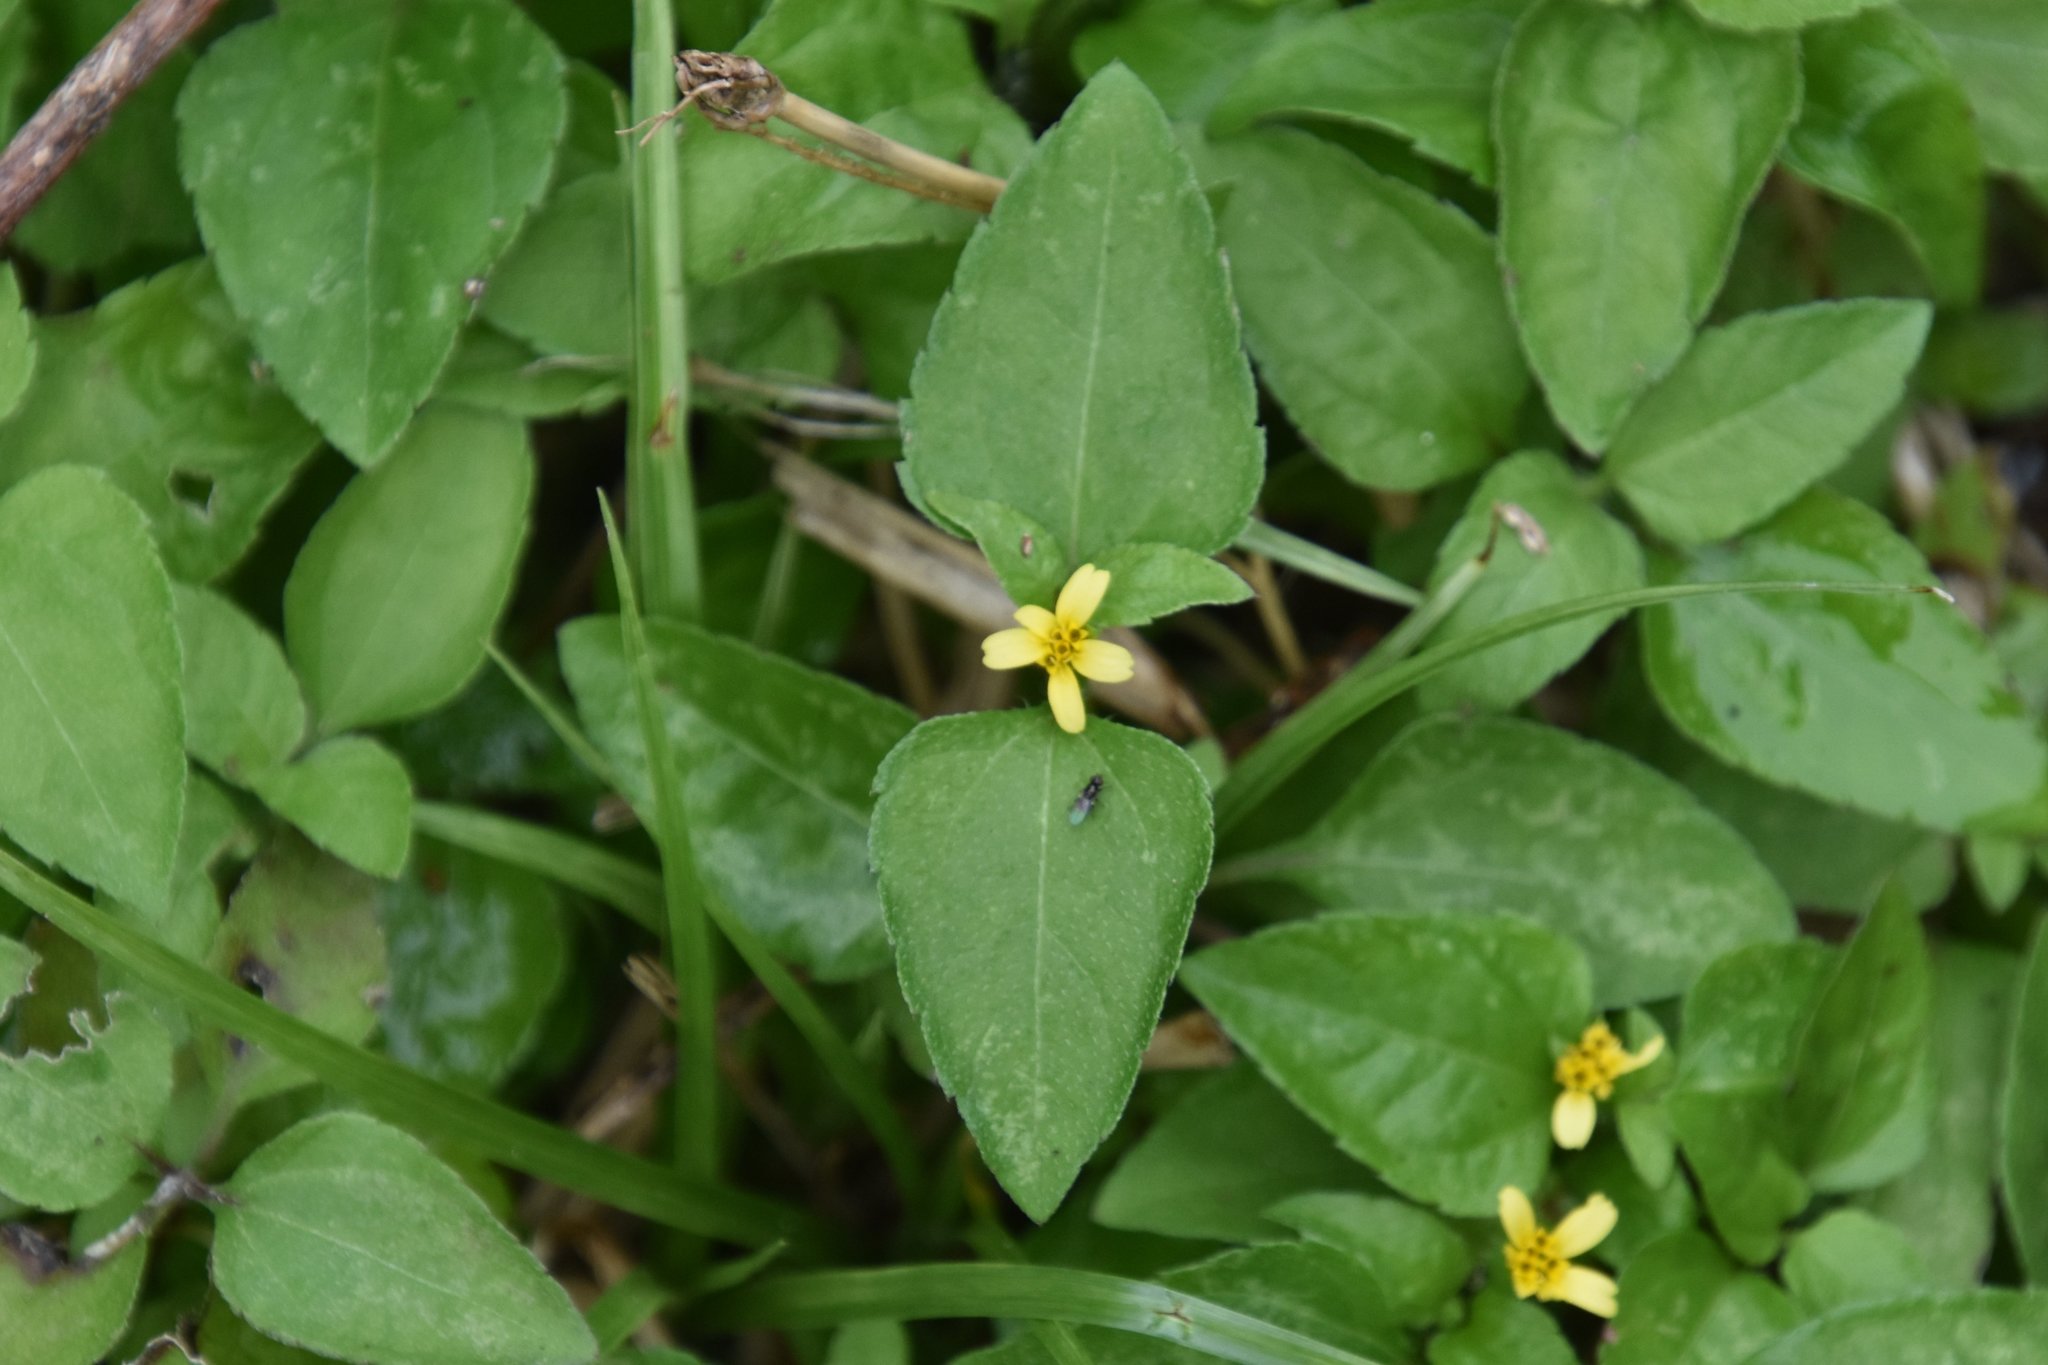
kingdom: Plantae
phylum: Tracheophyta
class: Magnoliopsida
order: Asterales
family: Asteraceae
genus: Calyptocarpus
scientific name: Calyptocarpus vialis
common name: Straggler daisy
